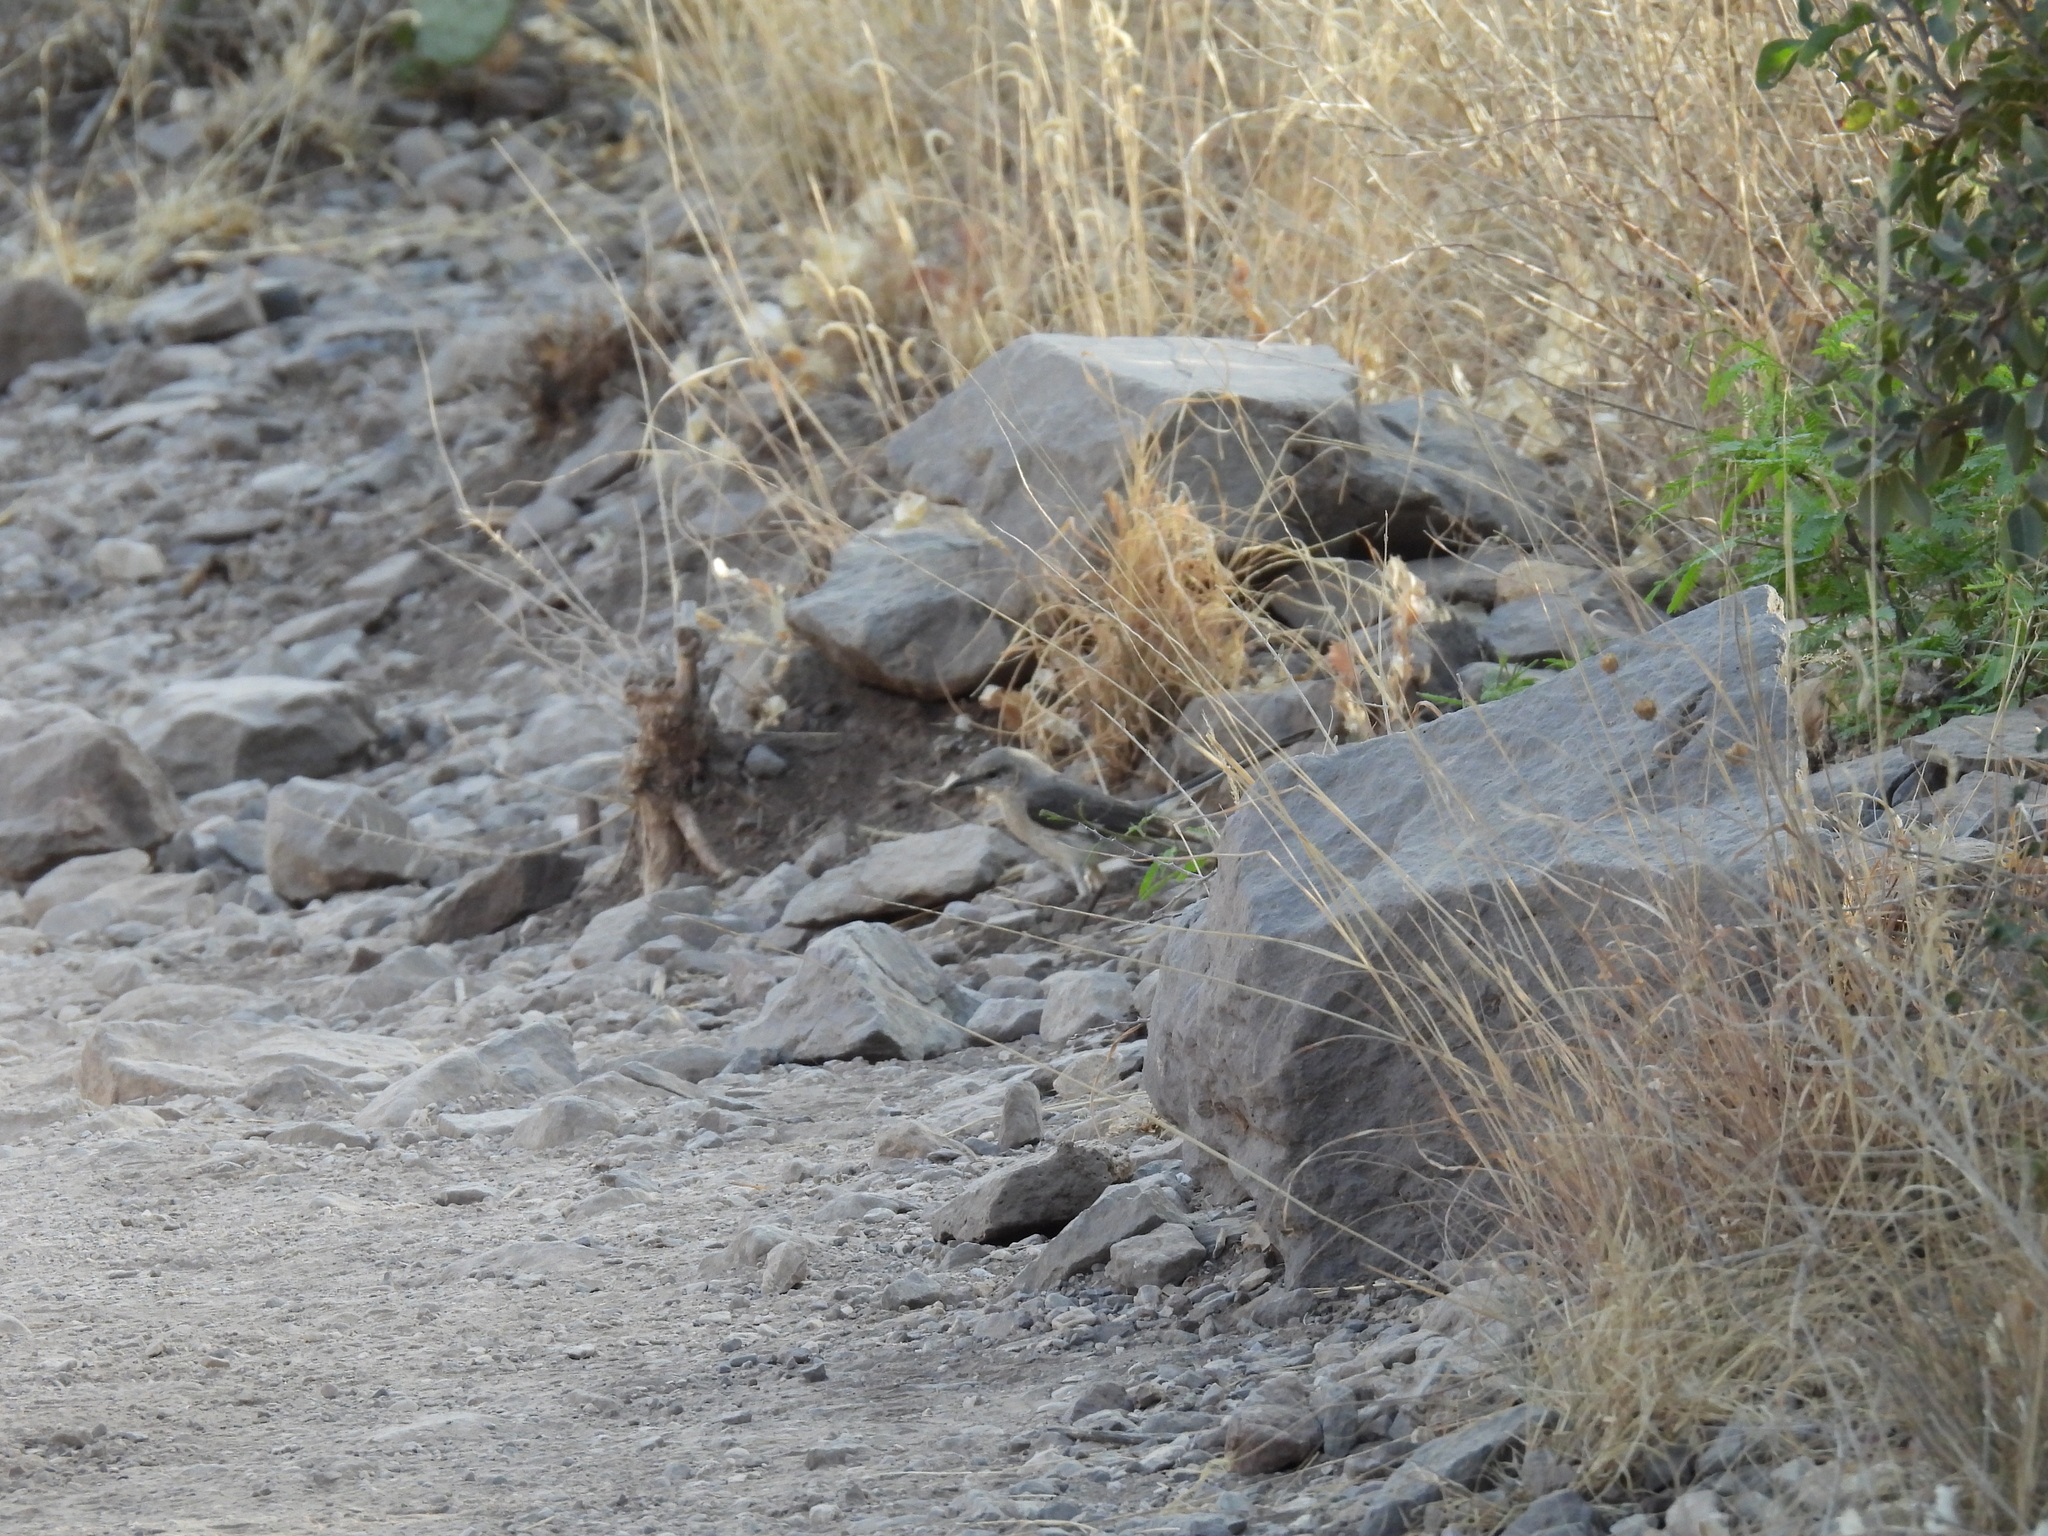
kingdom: Animalia
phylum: Chordata
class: Aves
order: Passeriformes
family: Mimidae
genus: Mimus
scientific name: Mimus polyglottos
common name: Northern mockingbird
